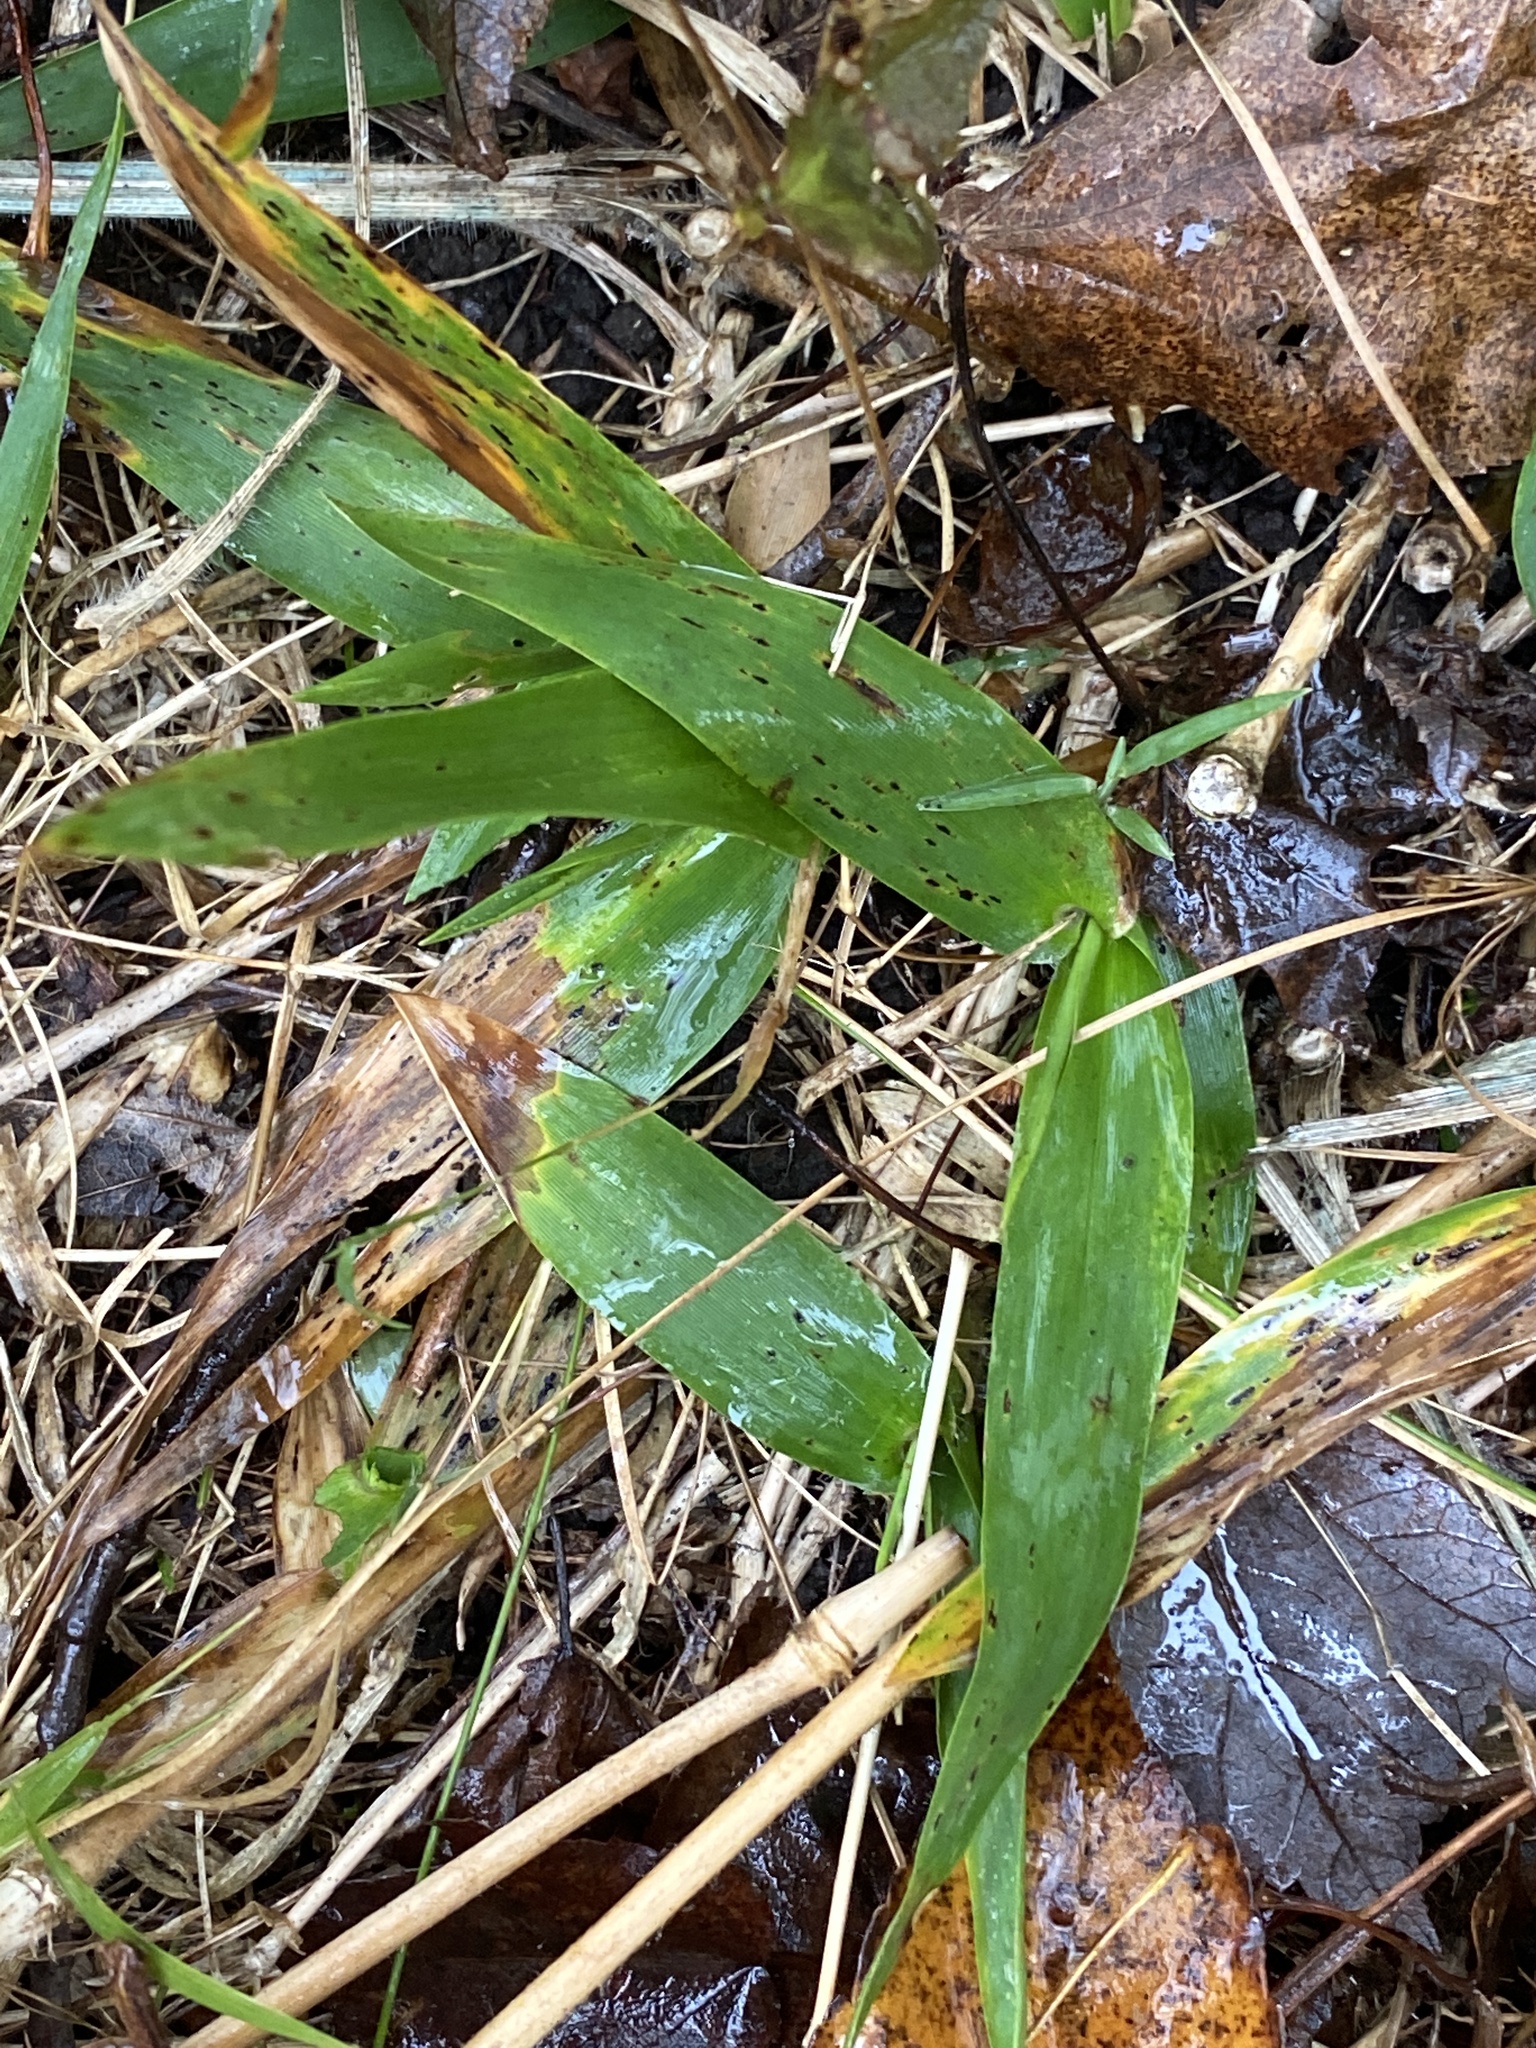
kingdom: Plantae
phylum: Tracheophyta
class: Liliopsida
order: Poales
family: Poaceae
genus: Dichanthelium
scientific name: Dichanthelium clandestinum
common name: Deer-tongue grass
